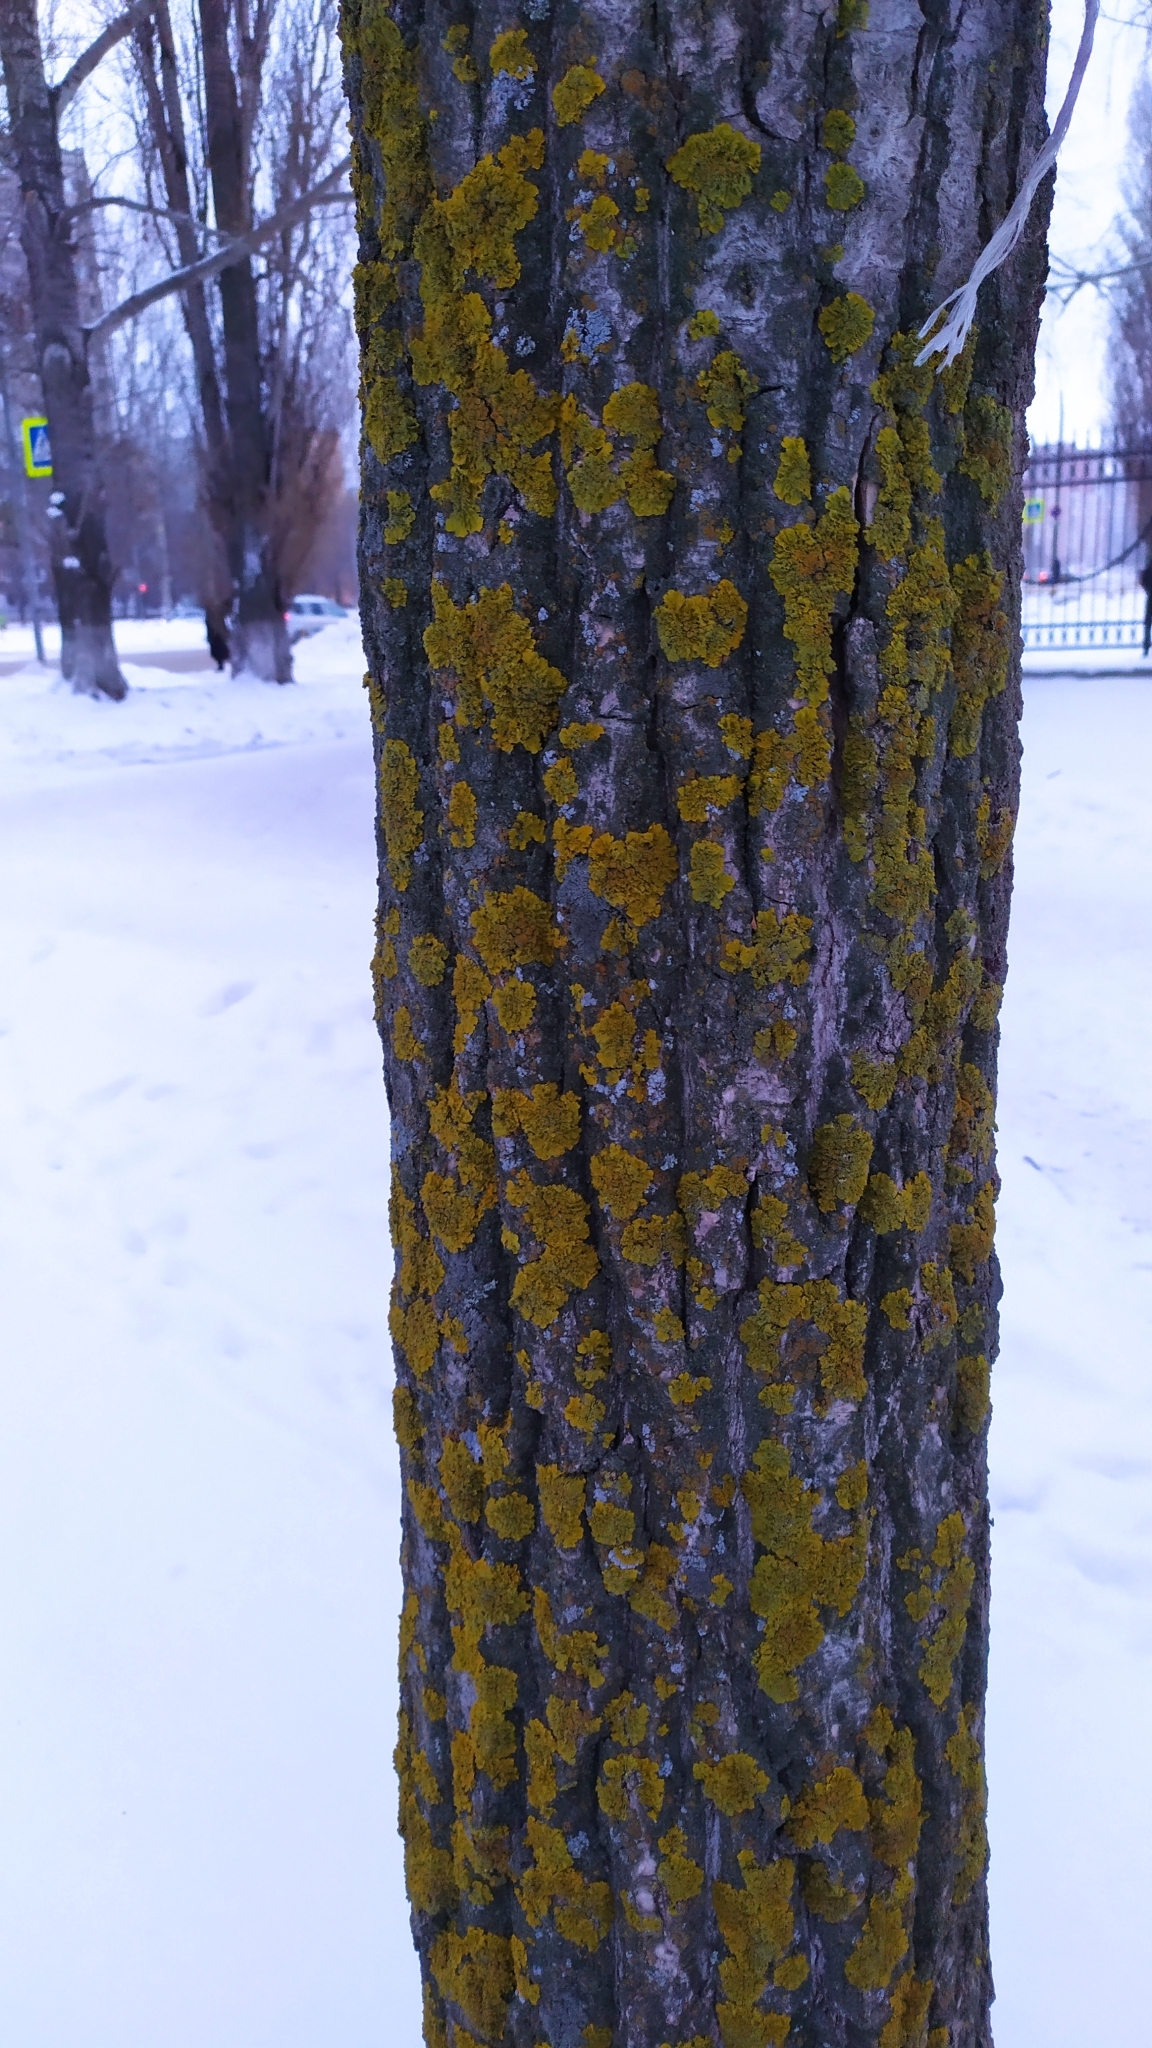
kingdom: Fungi
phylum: Ascomycota
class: Lecanoromycetes
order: Teloschistales
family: Teloschistaceae
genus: Xanthoria
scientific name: Xanthoria parietina
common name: Common orange lichen
